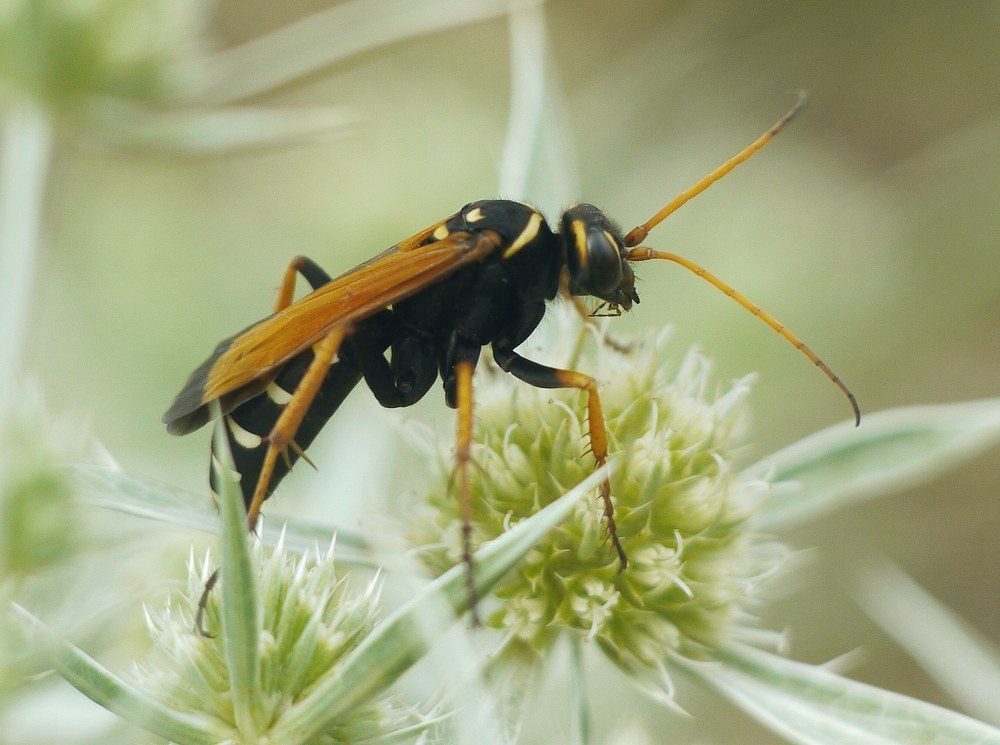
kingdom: Animalia
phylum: Arthropoda
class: Insecta
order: Hymenoptera
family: Pompilidae
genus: Parabatozonus
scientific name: Parabatozonus lacerticida
